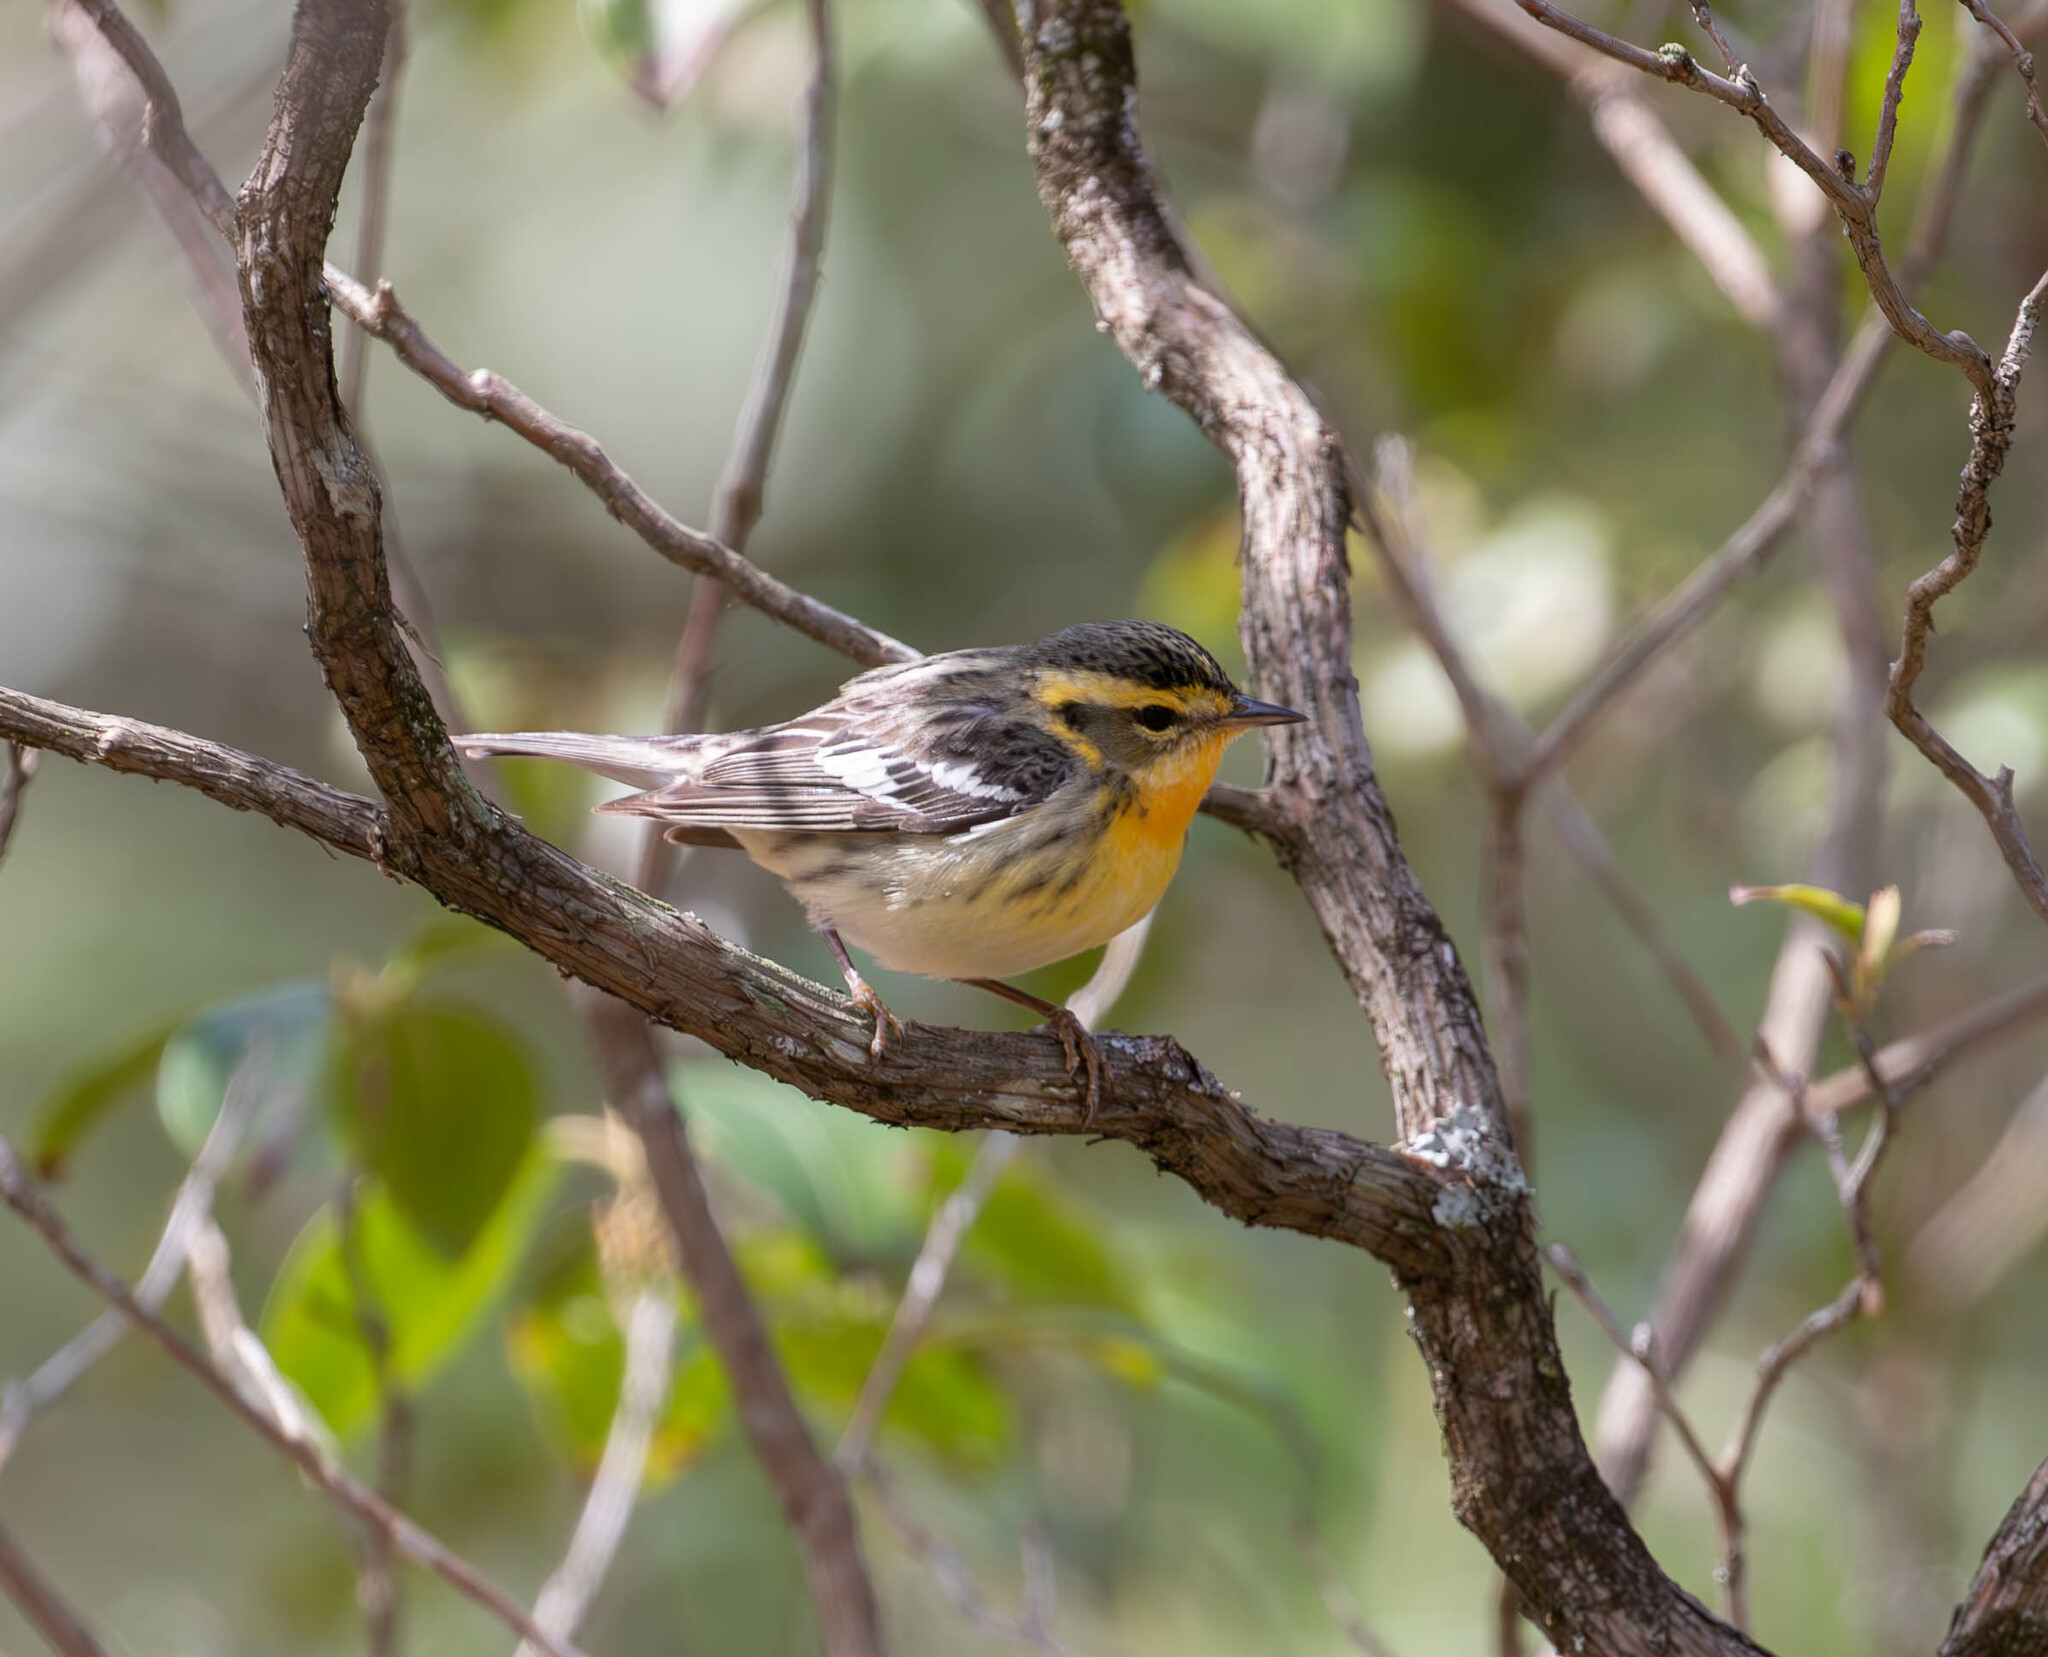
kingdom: Animalia
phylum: Chordata
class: Aves
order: Passeriformes
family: Parulidae
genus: Setophaga
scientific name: Setophaga fusca
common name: Blackburnian warbler
